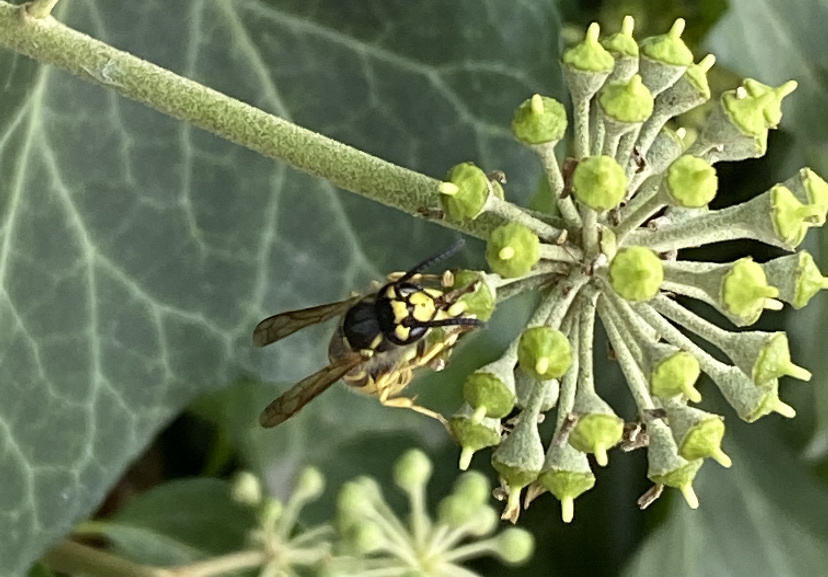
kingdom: Animalia
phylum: Arthropoda
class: Insecta
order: Hymenoptera
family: Vespidae
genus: Vespula
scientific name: Vespula germanica
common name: German wasp
